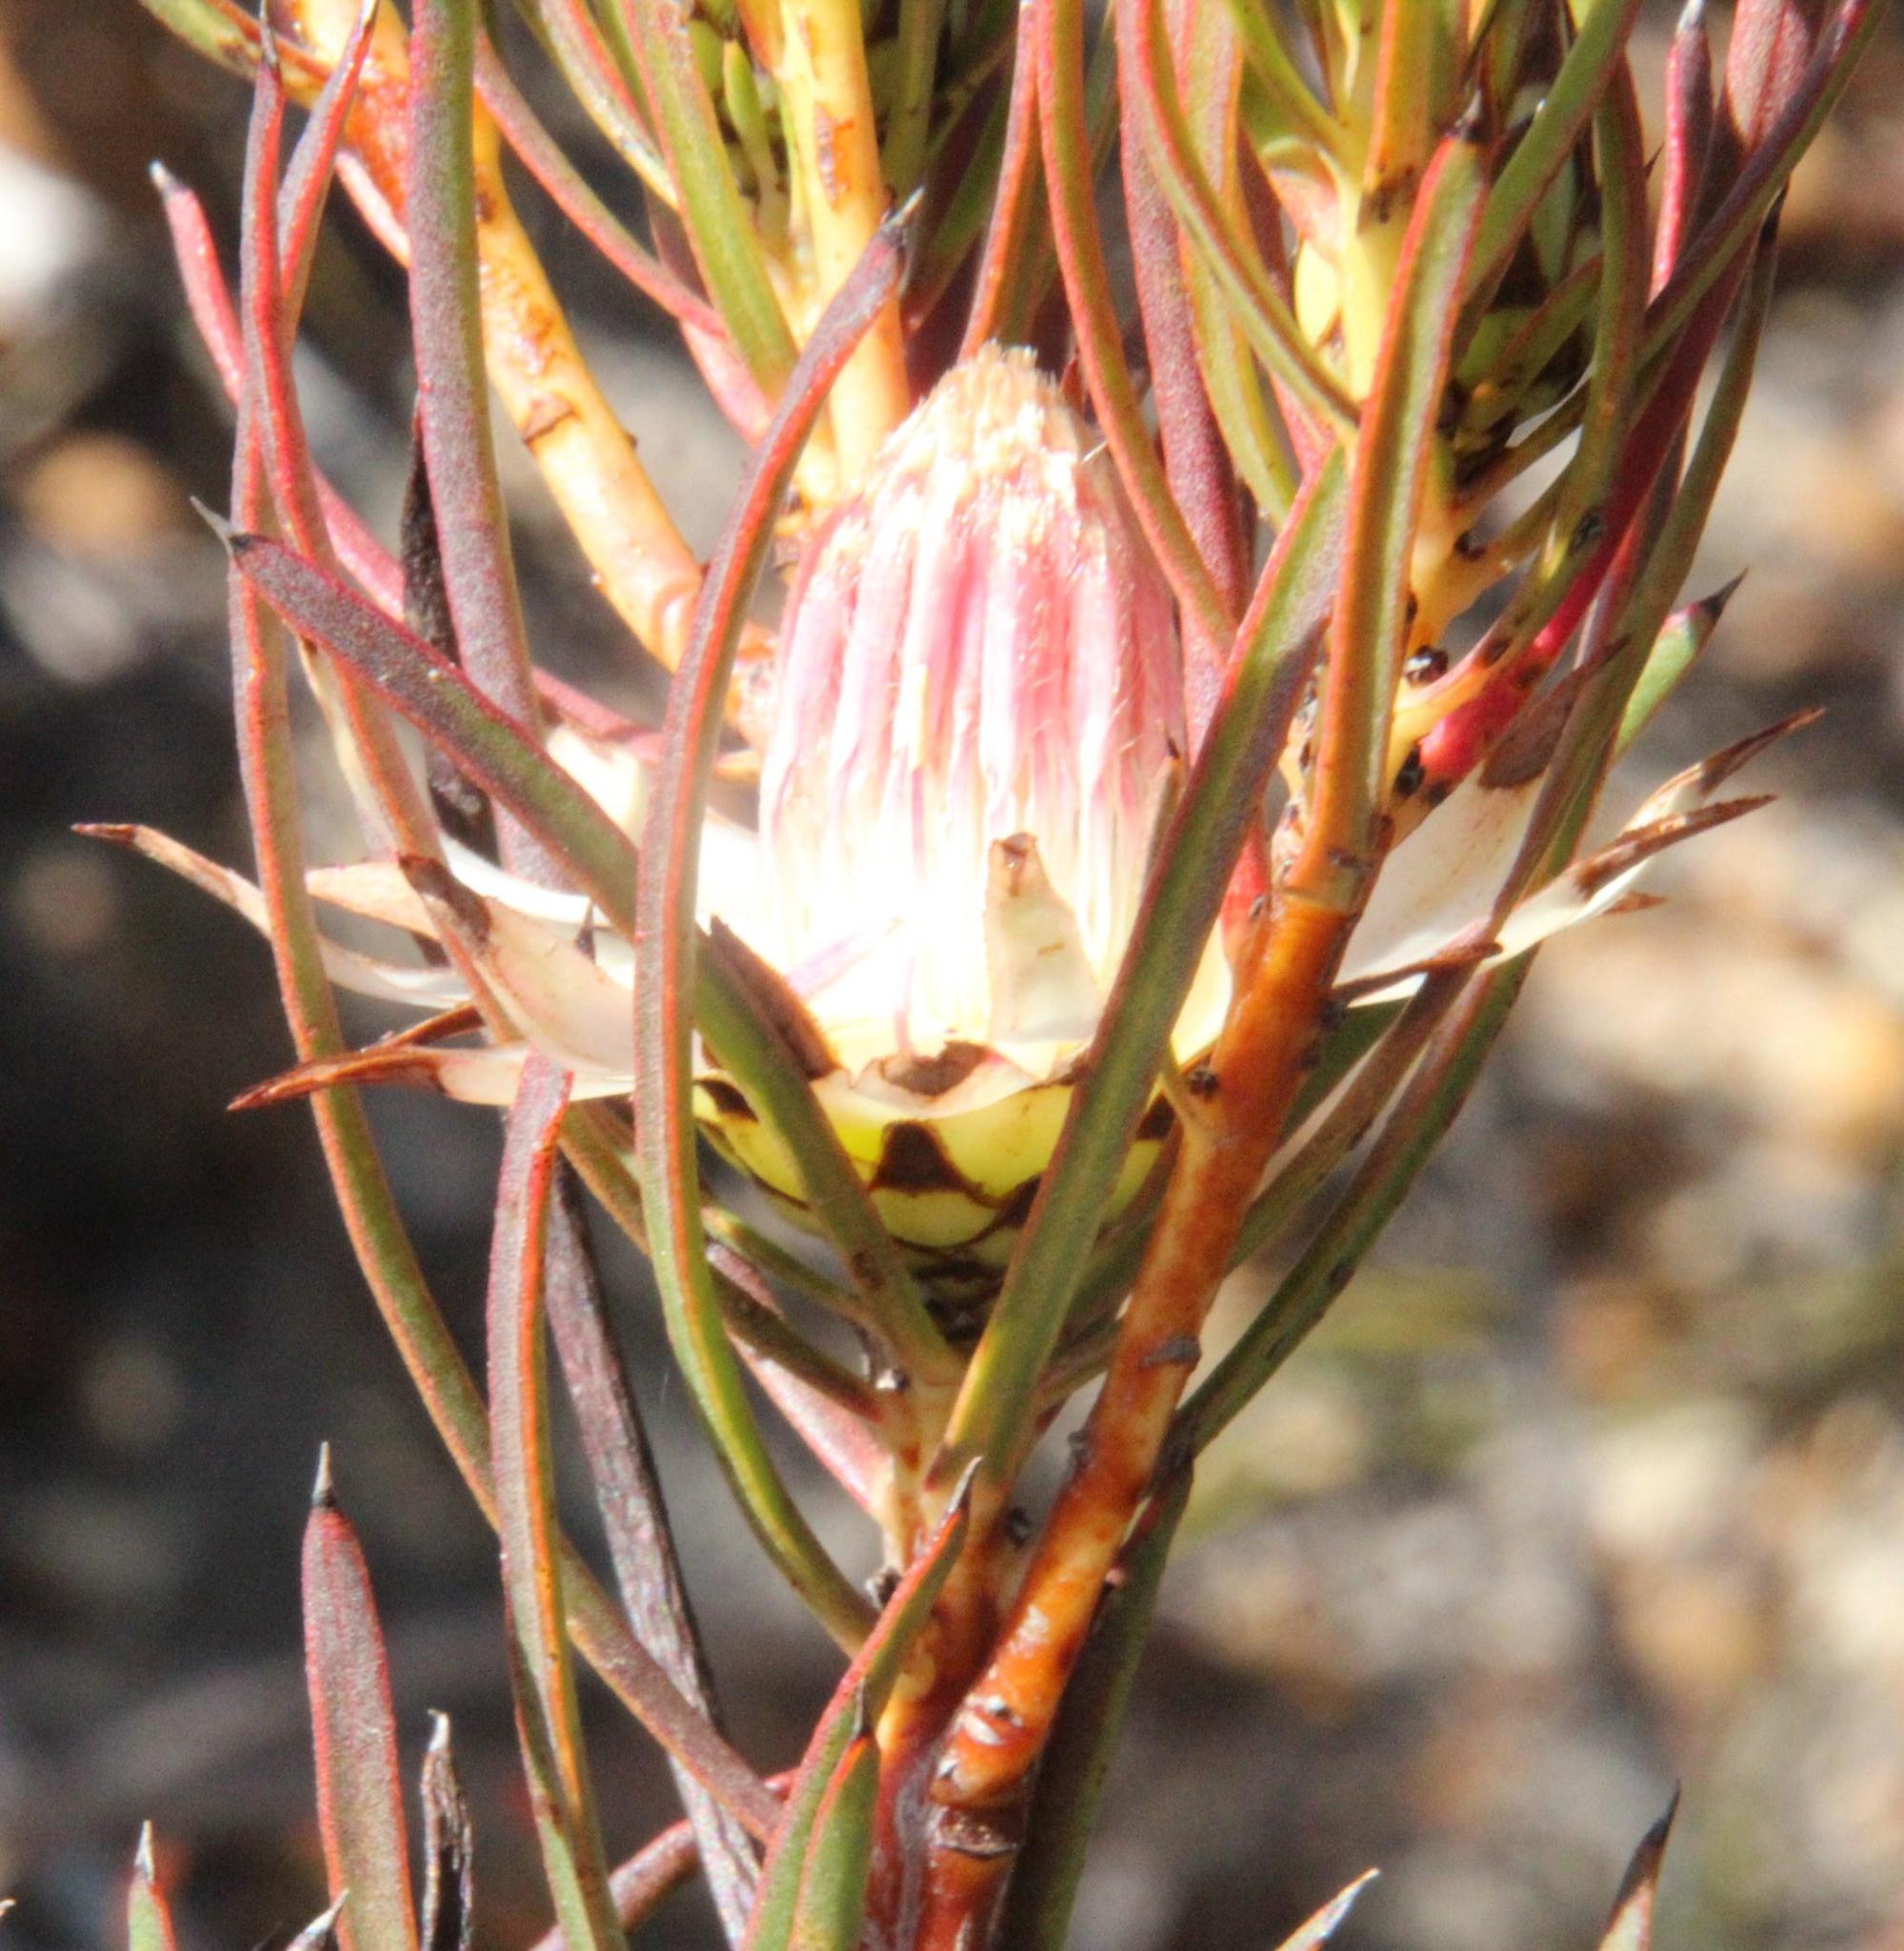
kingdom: Plantae
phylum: Tracheophyta
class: Magnoliopsida
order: Proteales
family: Proteaceae
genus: Protea
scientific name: Protea odorata
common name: Swartland sugarbush
